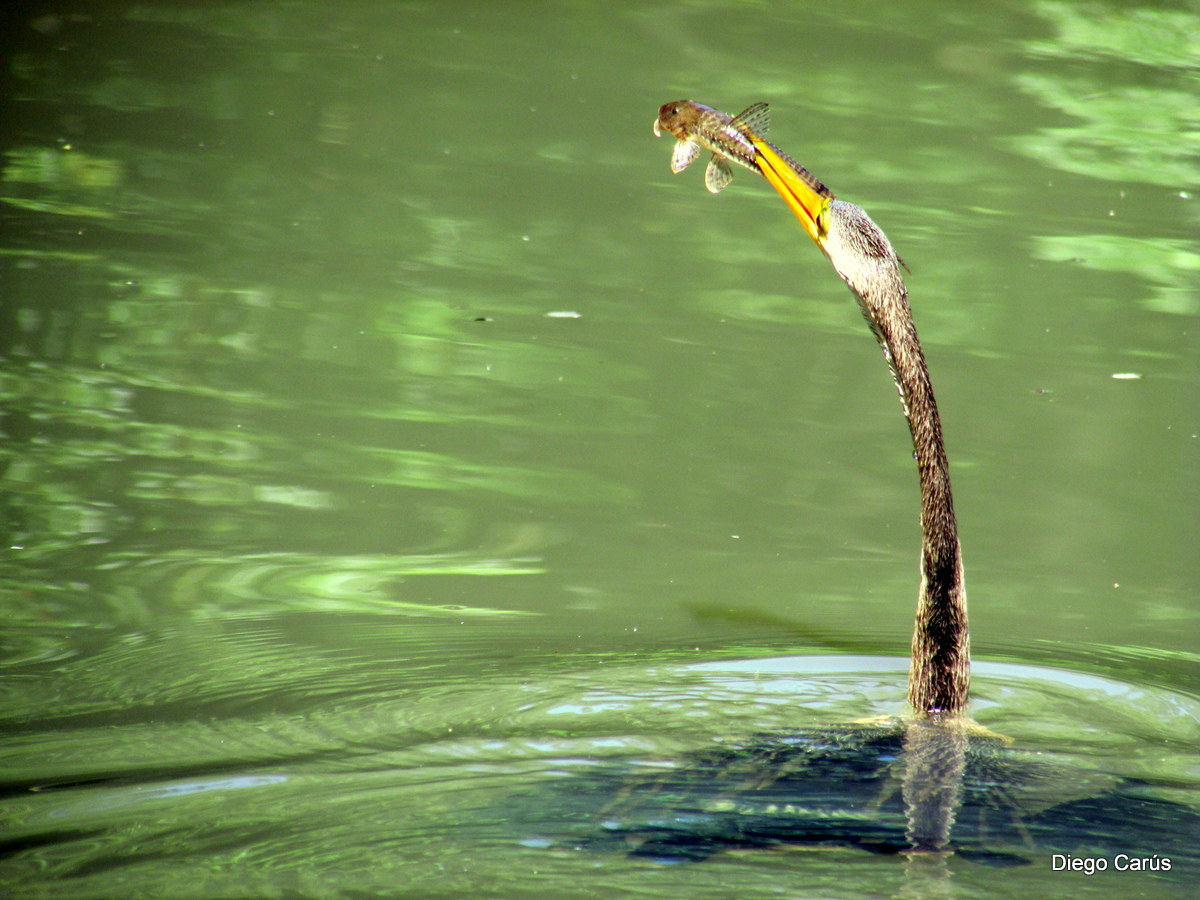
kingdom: Animalia
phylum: Chordata
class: Aves
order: Suliformes
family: Anhingidae
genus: Anhinga
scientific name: Anhinga anhinga
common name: Anhinga
